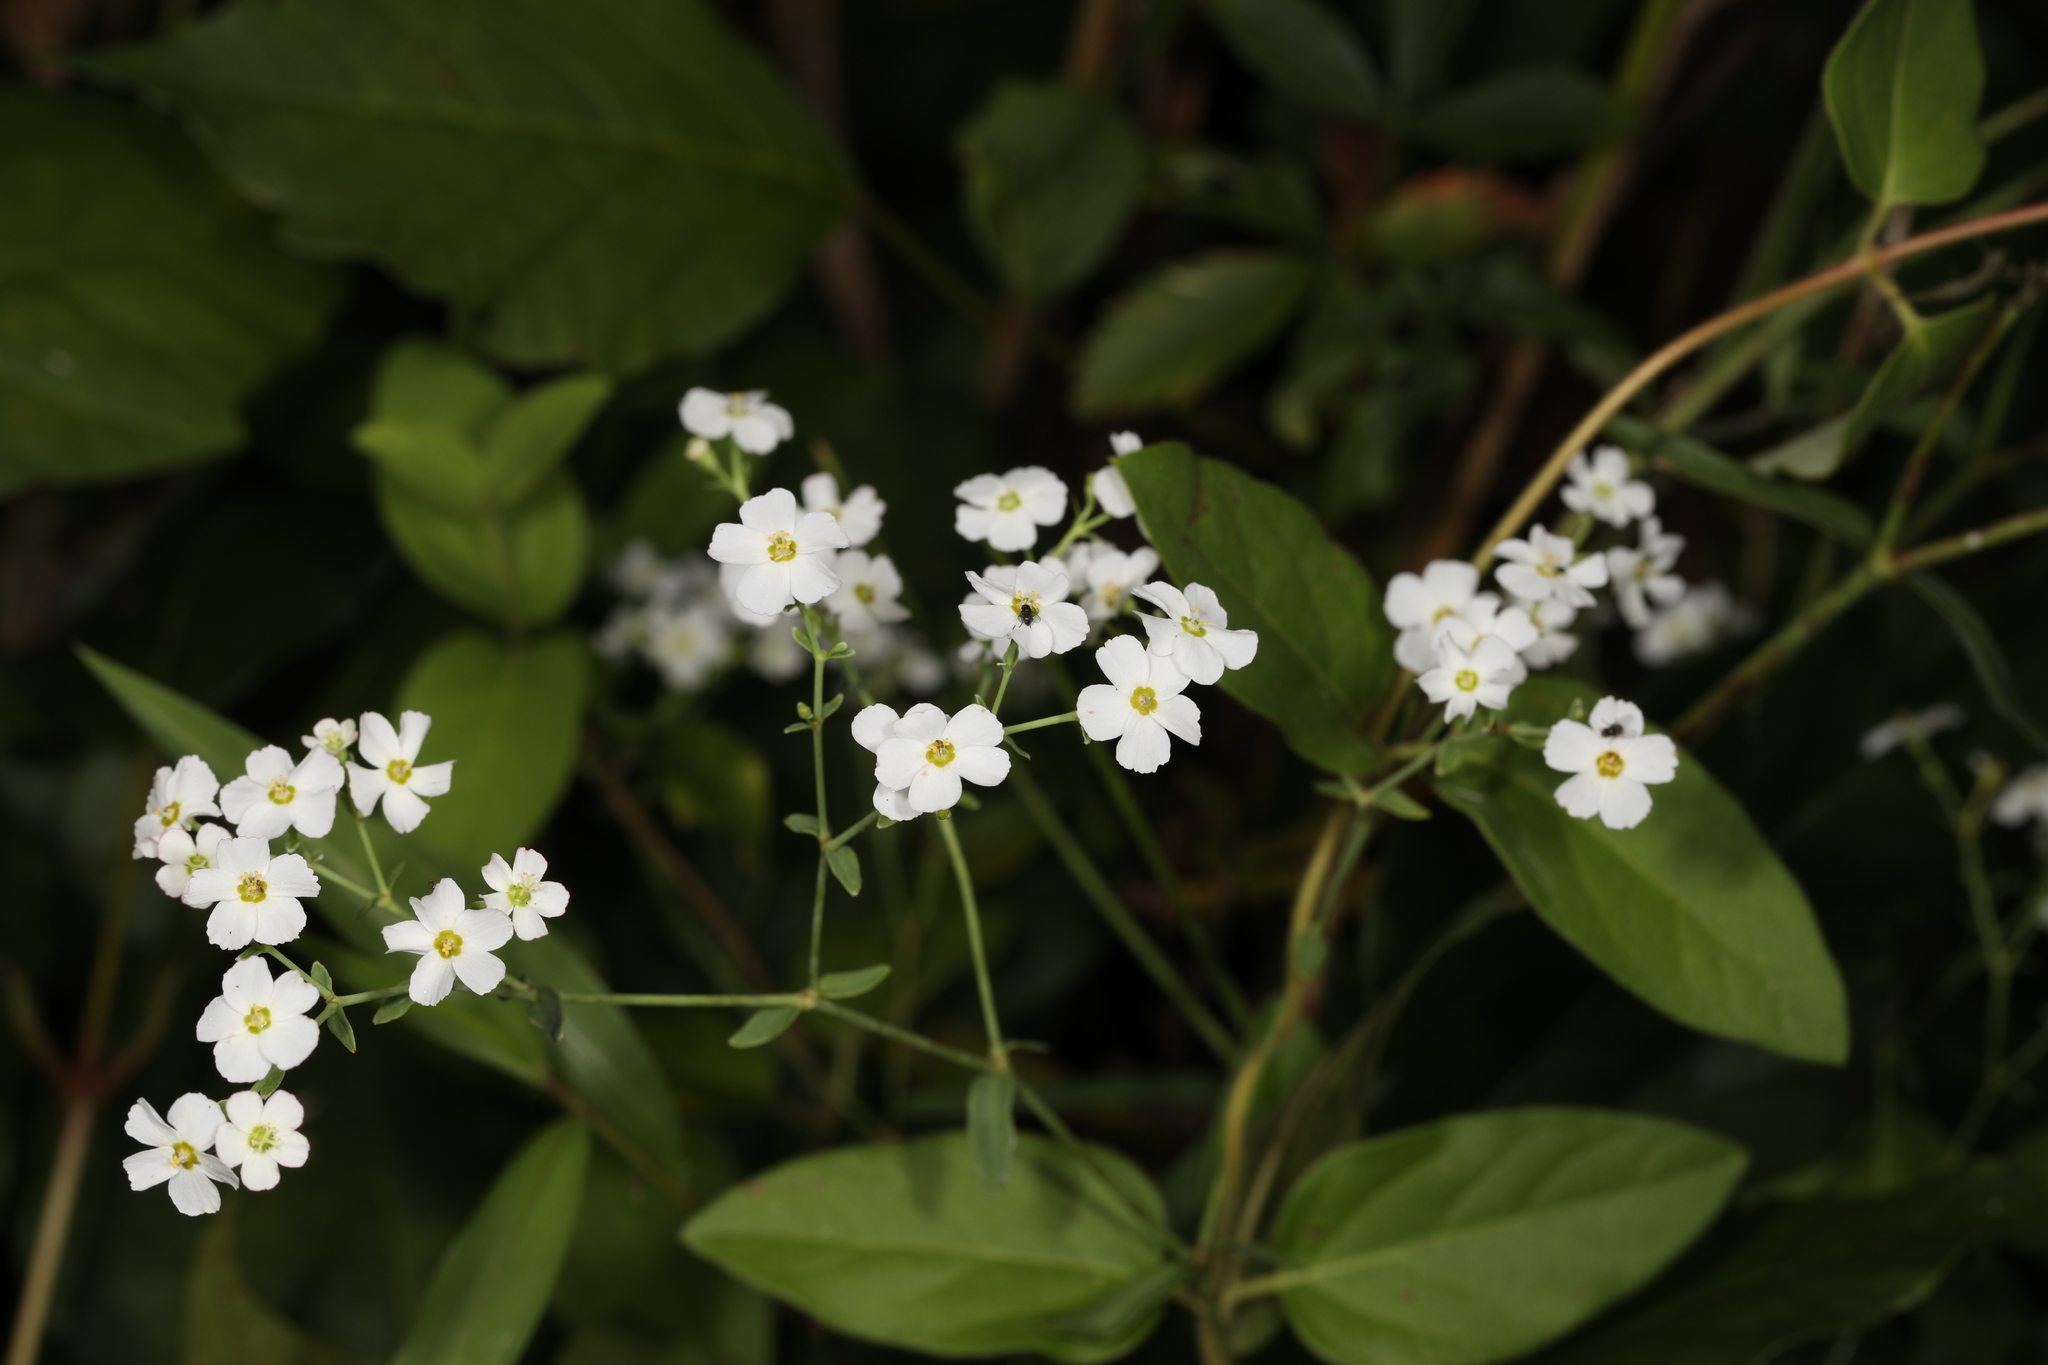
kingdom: Plantae
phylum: Tracheophyta
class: Magnoliopsida
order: Malpighiales
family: Euphorbiaceae
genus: Euphorbia
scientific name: Euphorbia corollata
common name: Flowering spurge
